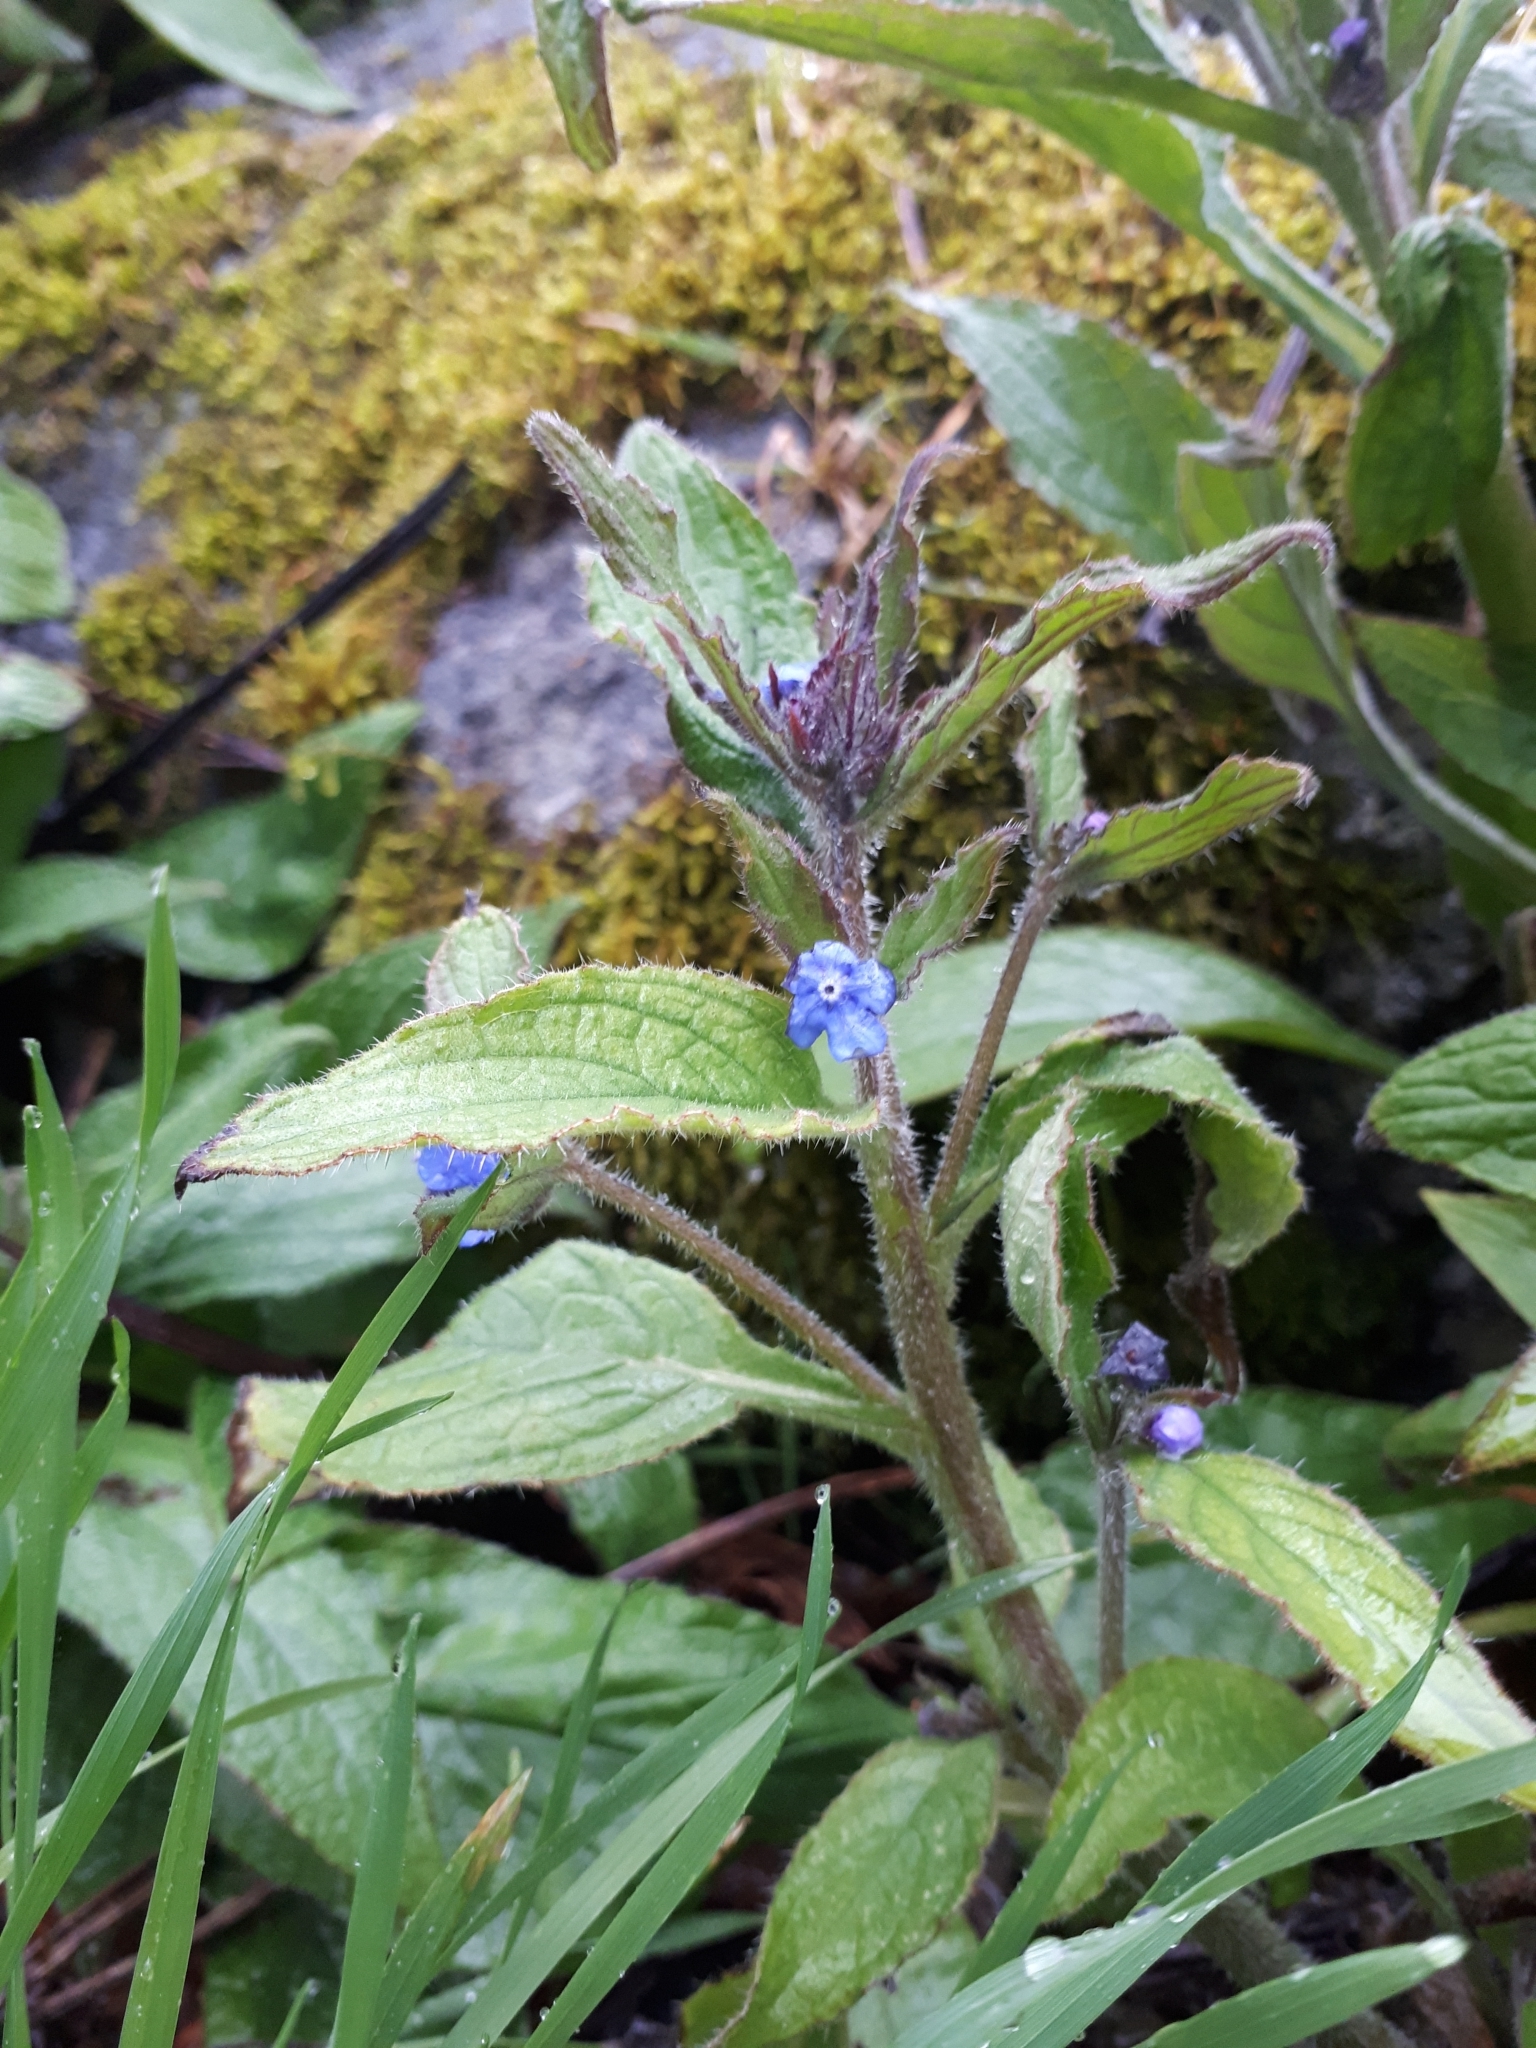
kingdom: Plantae
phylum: Tracheophyta
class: Magnoliopsida
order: Boraginales
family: Boraginaceae
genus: Pentaglottis
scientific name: Pentaglottis sempervirens
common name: Green alkanet
